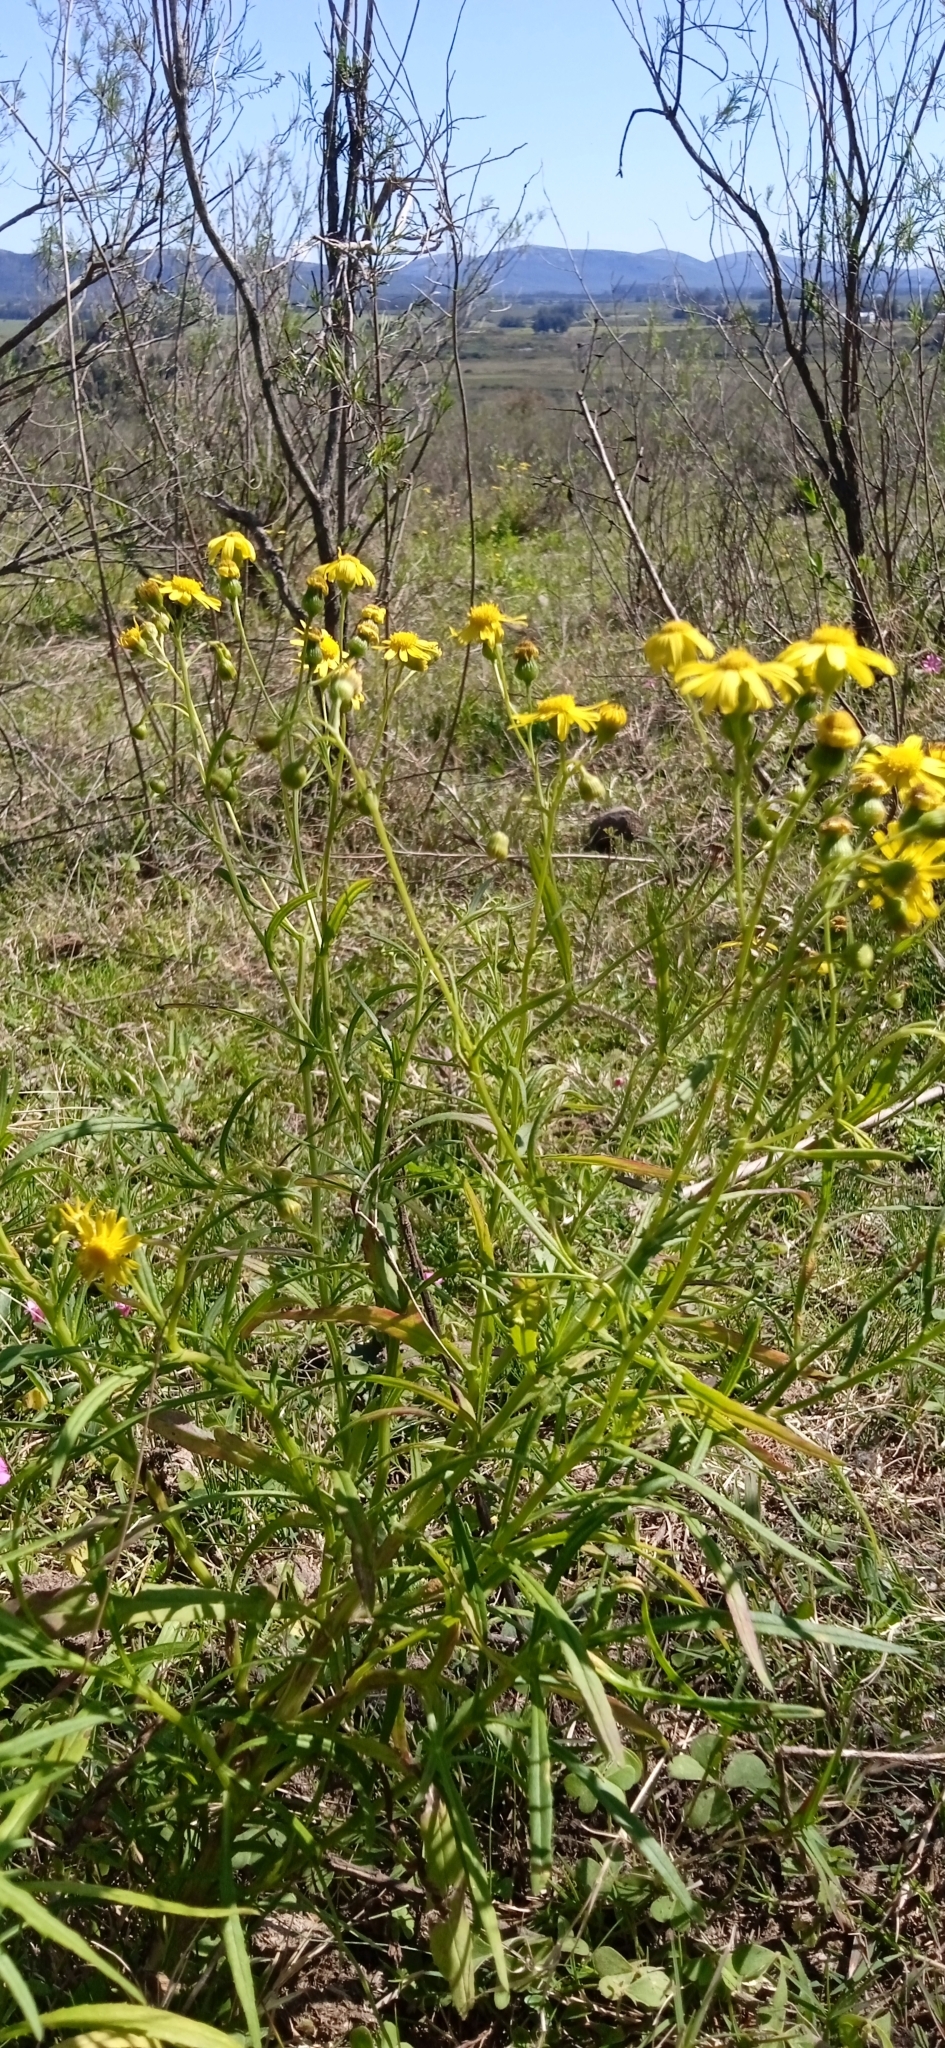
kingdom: Plantae
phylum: Tracheophyta
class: Magnoliopsida
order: Asterales
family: Asteraceae
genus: Senecio
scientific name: Senecio madagascariensis
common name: Madagascar ragwort
